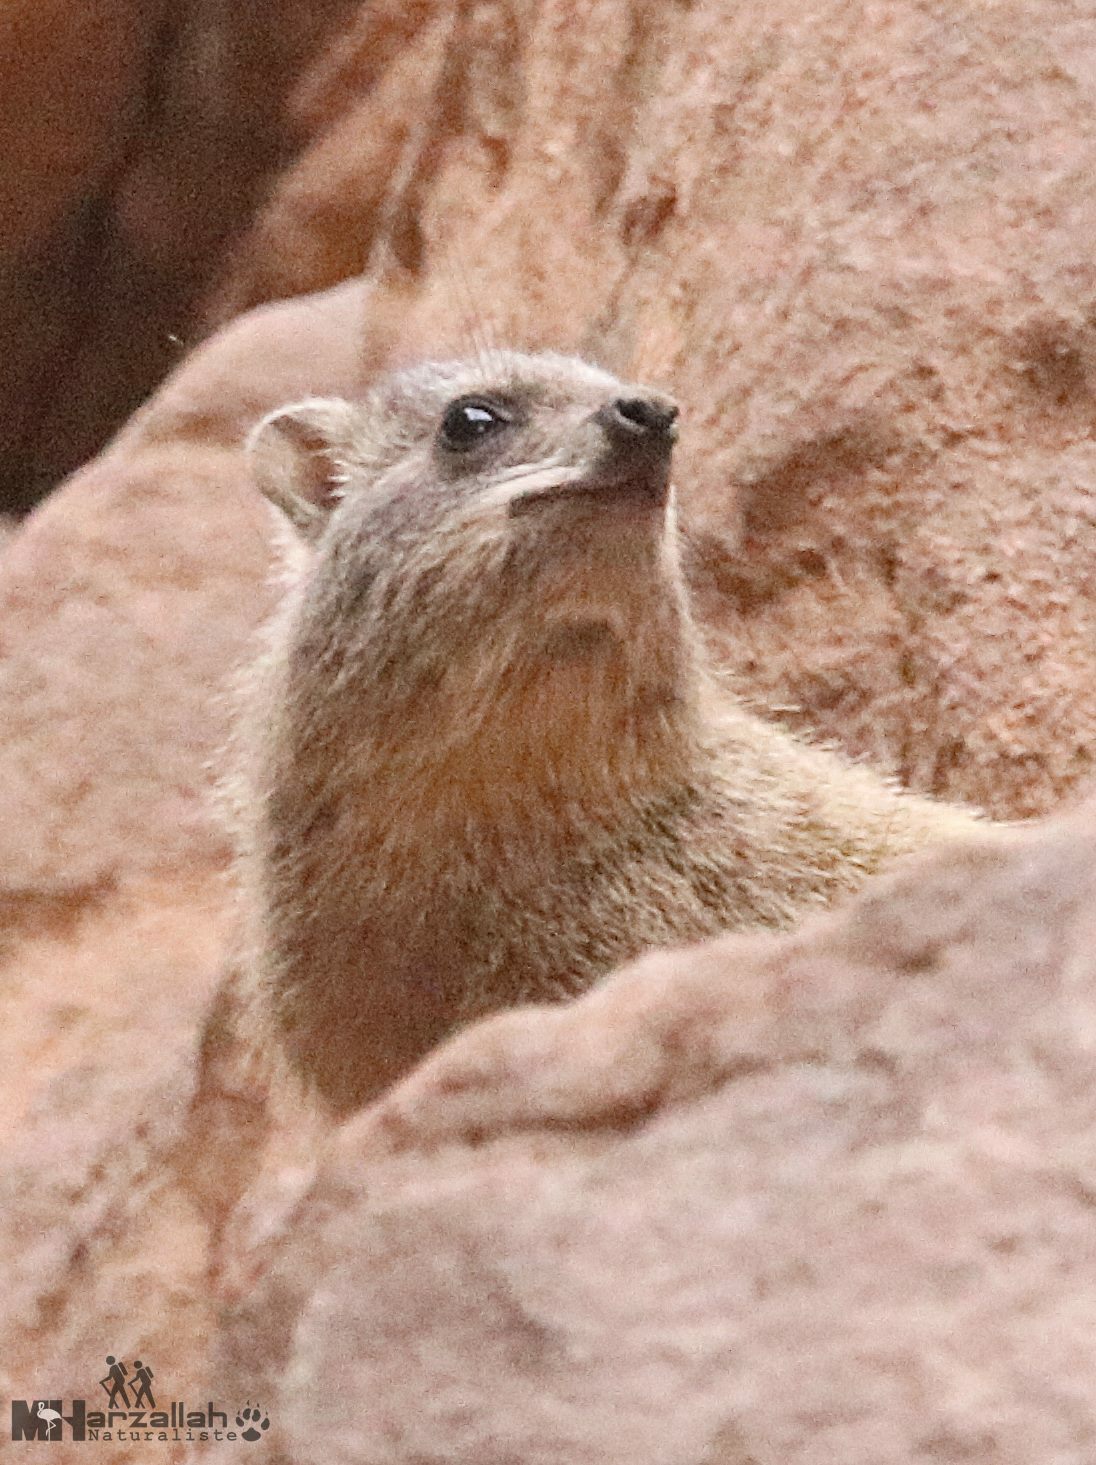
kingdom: Animalia
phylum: Chordata
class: Mammalia
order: Hyracoidea
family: Procaviidae
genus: Procavia
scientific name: Procavia capensis
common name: Rock hyrax
